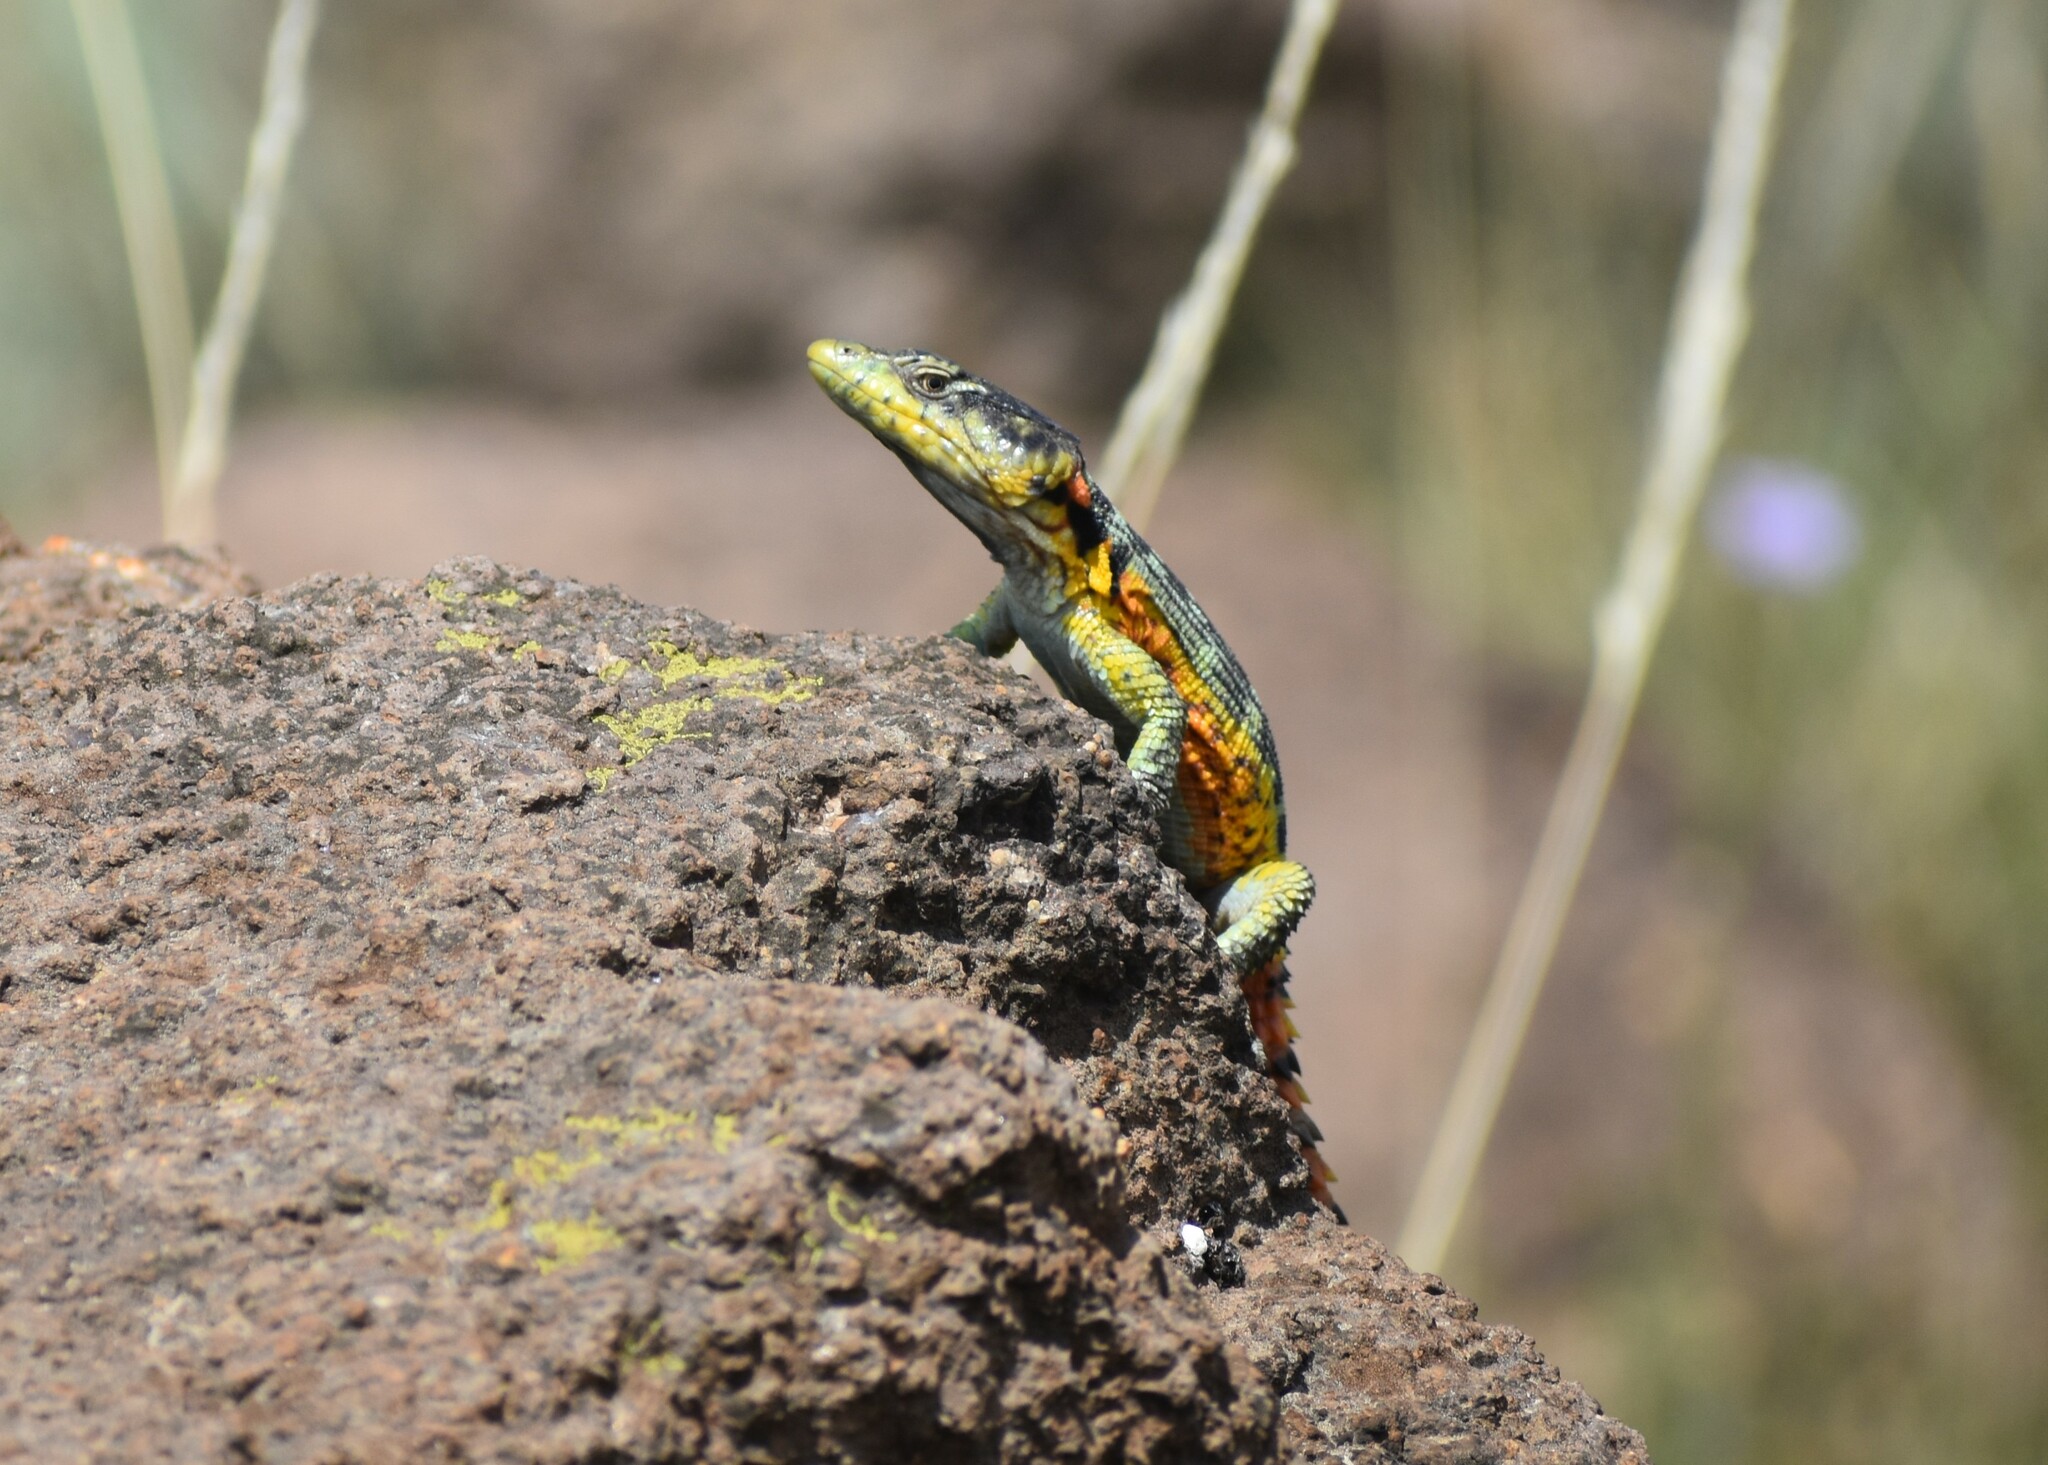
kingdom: Animalia
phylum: Chordata
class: Squamata
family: Cordylidae
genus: Pseudocordylus
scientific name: Pseudocordylus subviridis
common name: Drakensberg crag lizard
